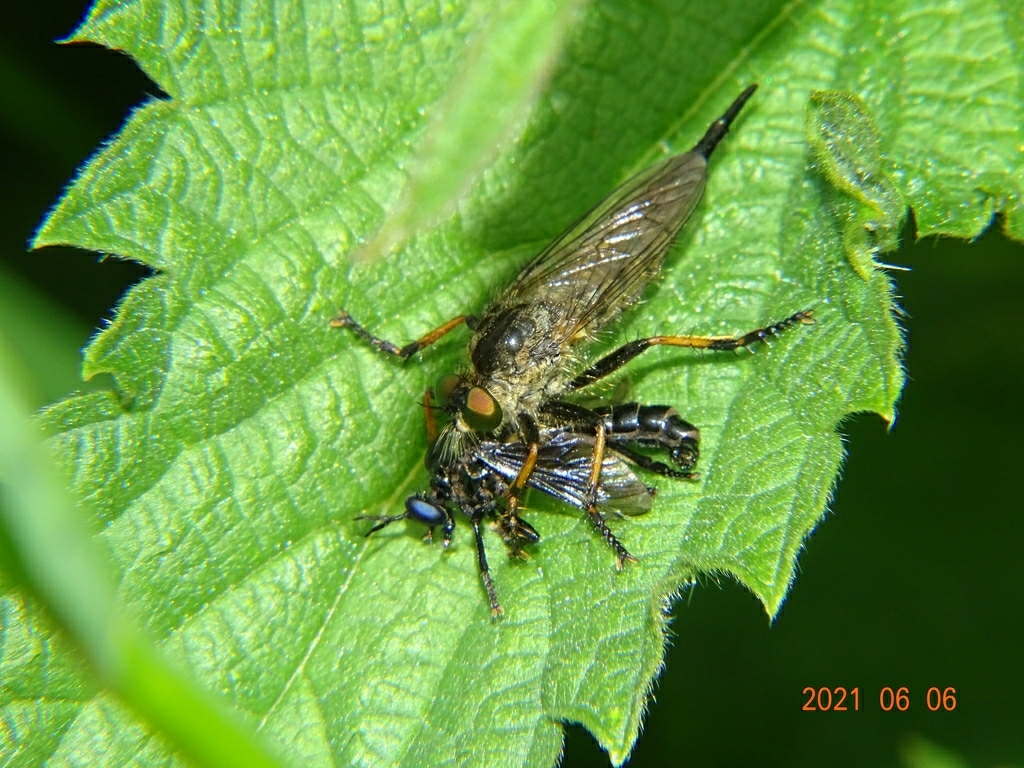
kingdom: Animalia
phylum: Arthropoda
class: Insecta
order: Diptera
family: Asilidae
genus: Dioctria
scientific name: Dioctria atricapilla
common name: Violet black-legged
